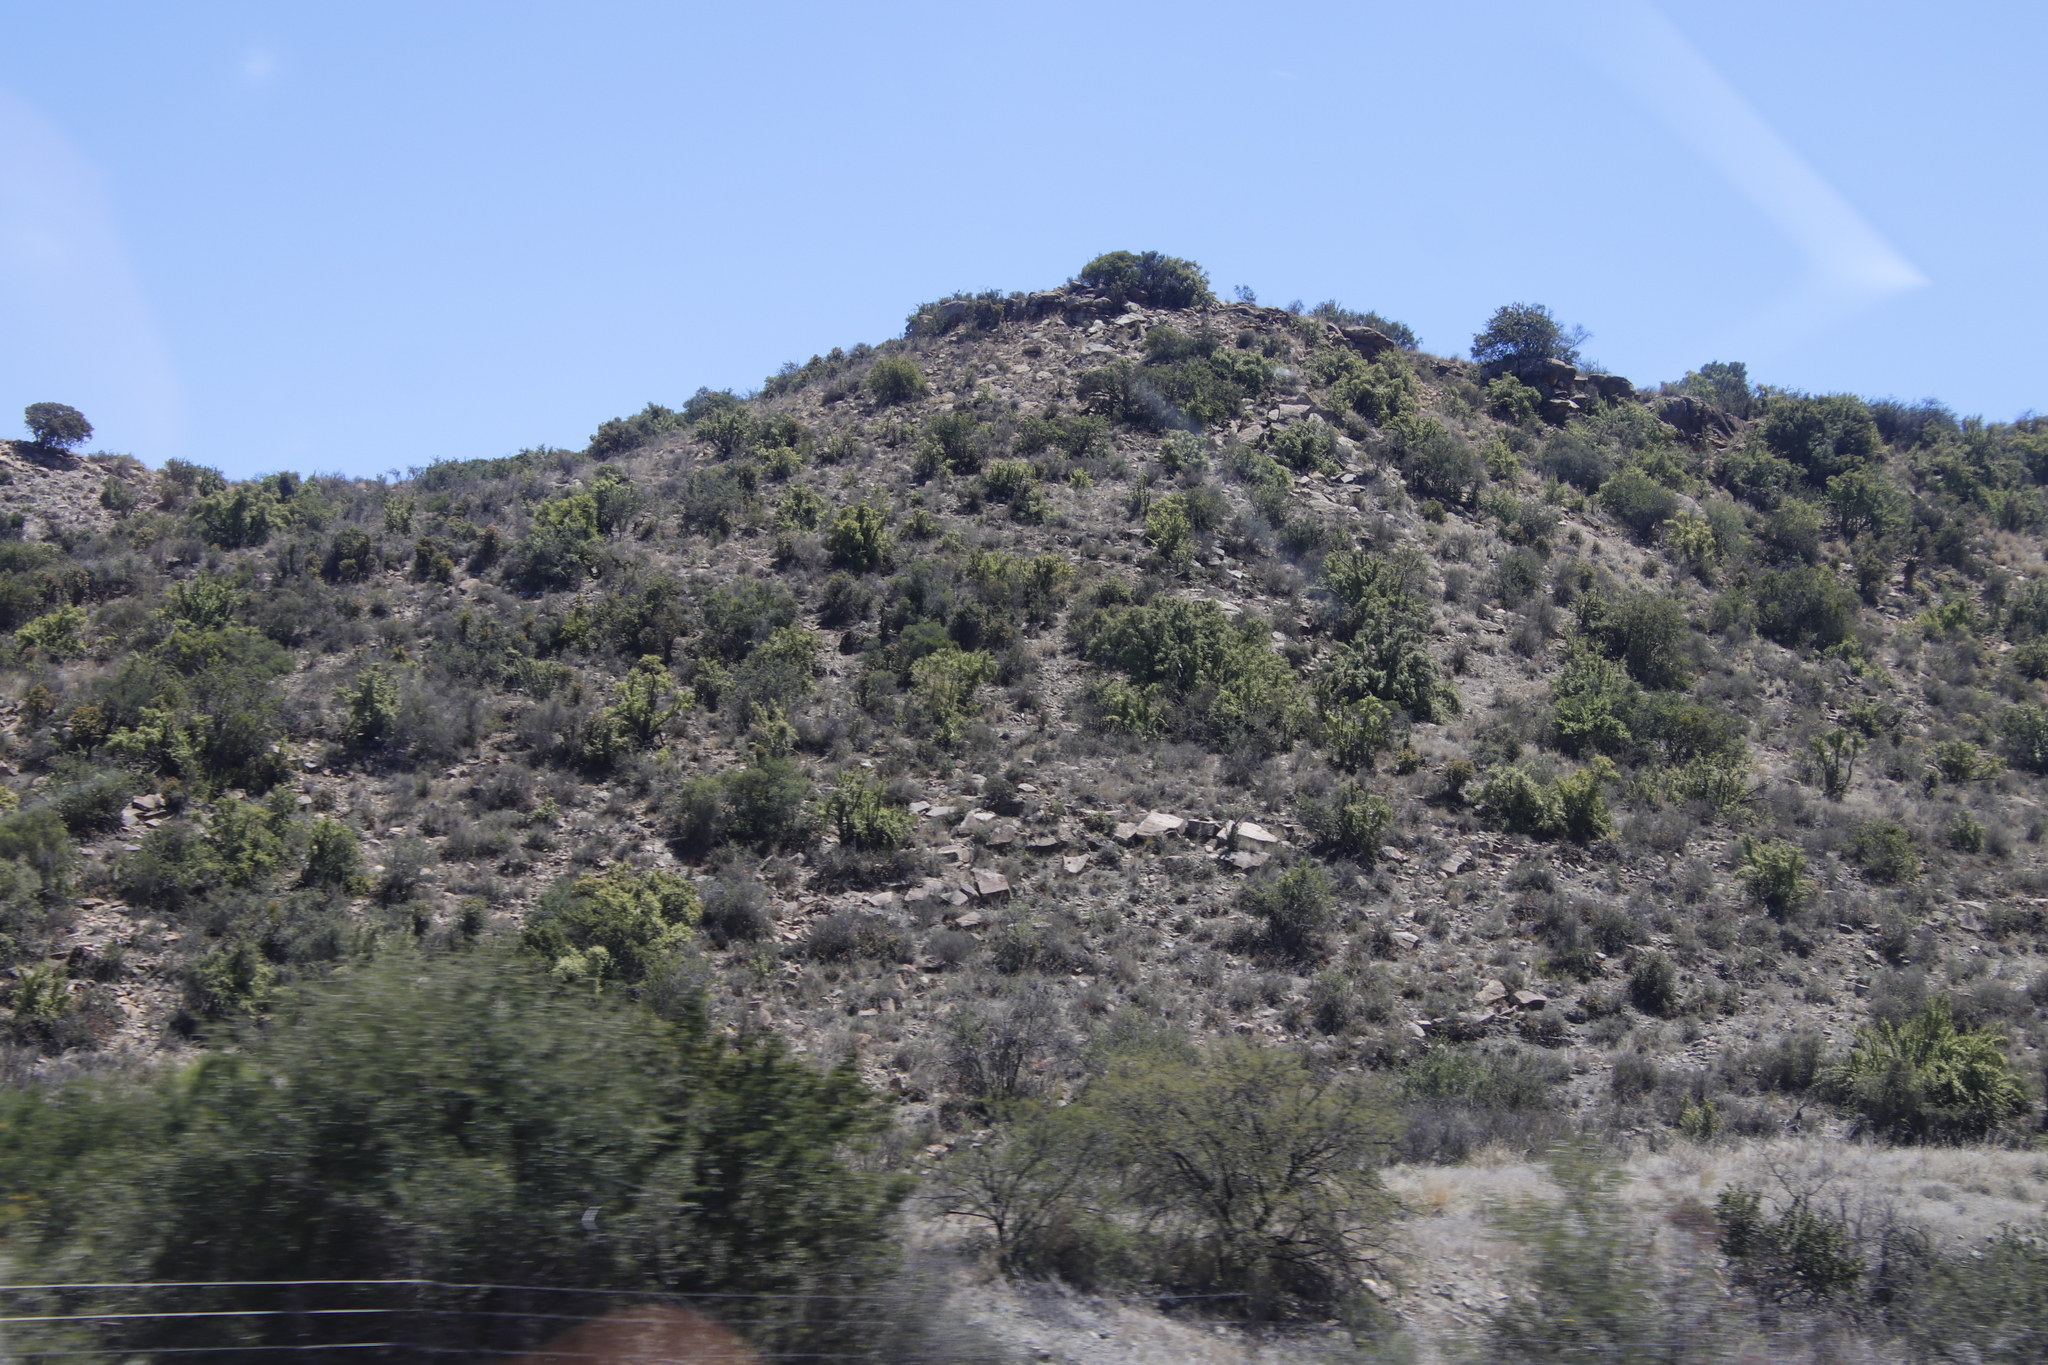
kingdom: Plantae
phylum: Tracheophyta
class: Magnoliopsida
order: Caryophyllales
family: Didiereaceae
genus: Portulacaria
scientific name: Portulacaria afra
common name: Elephant-bush
